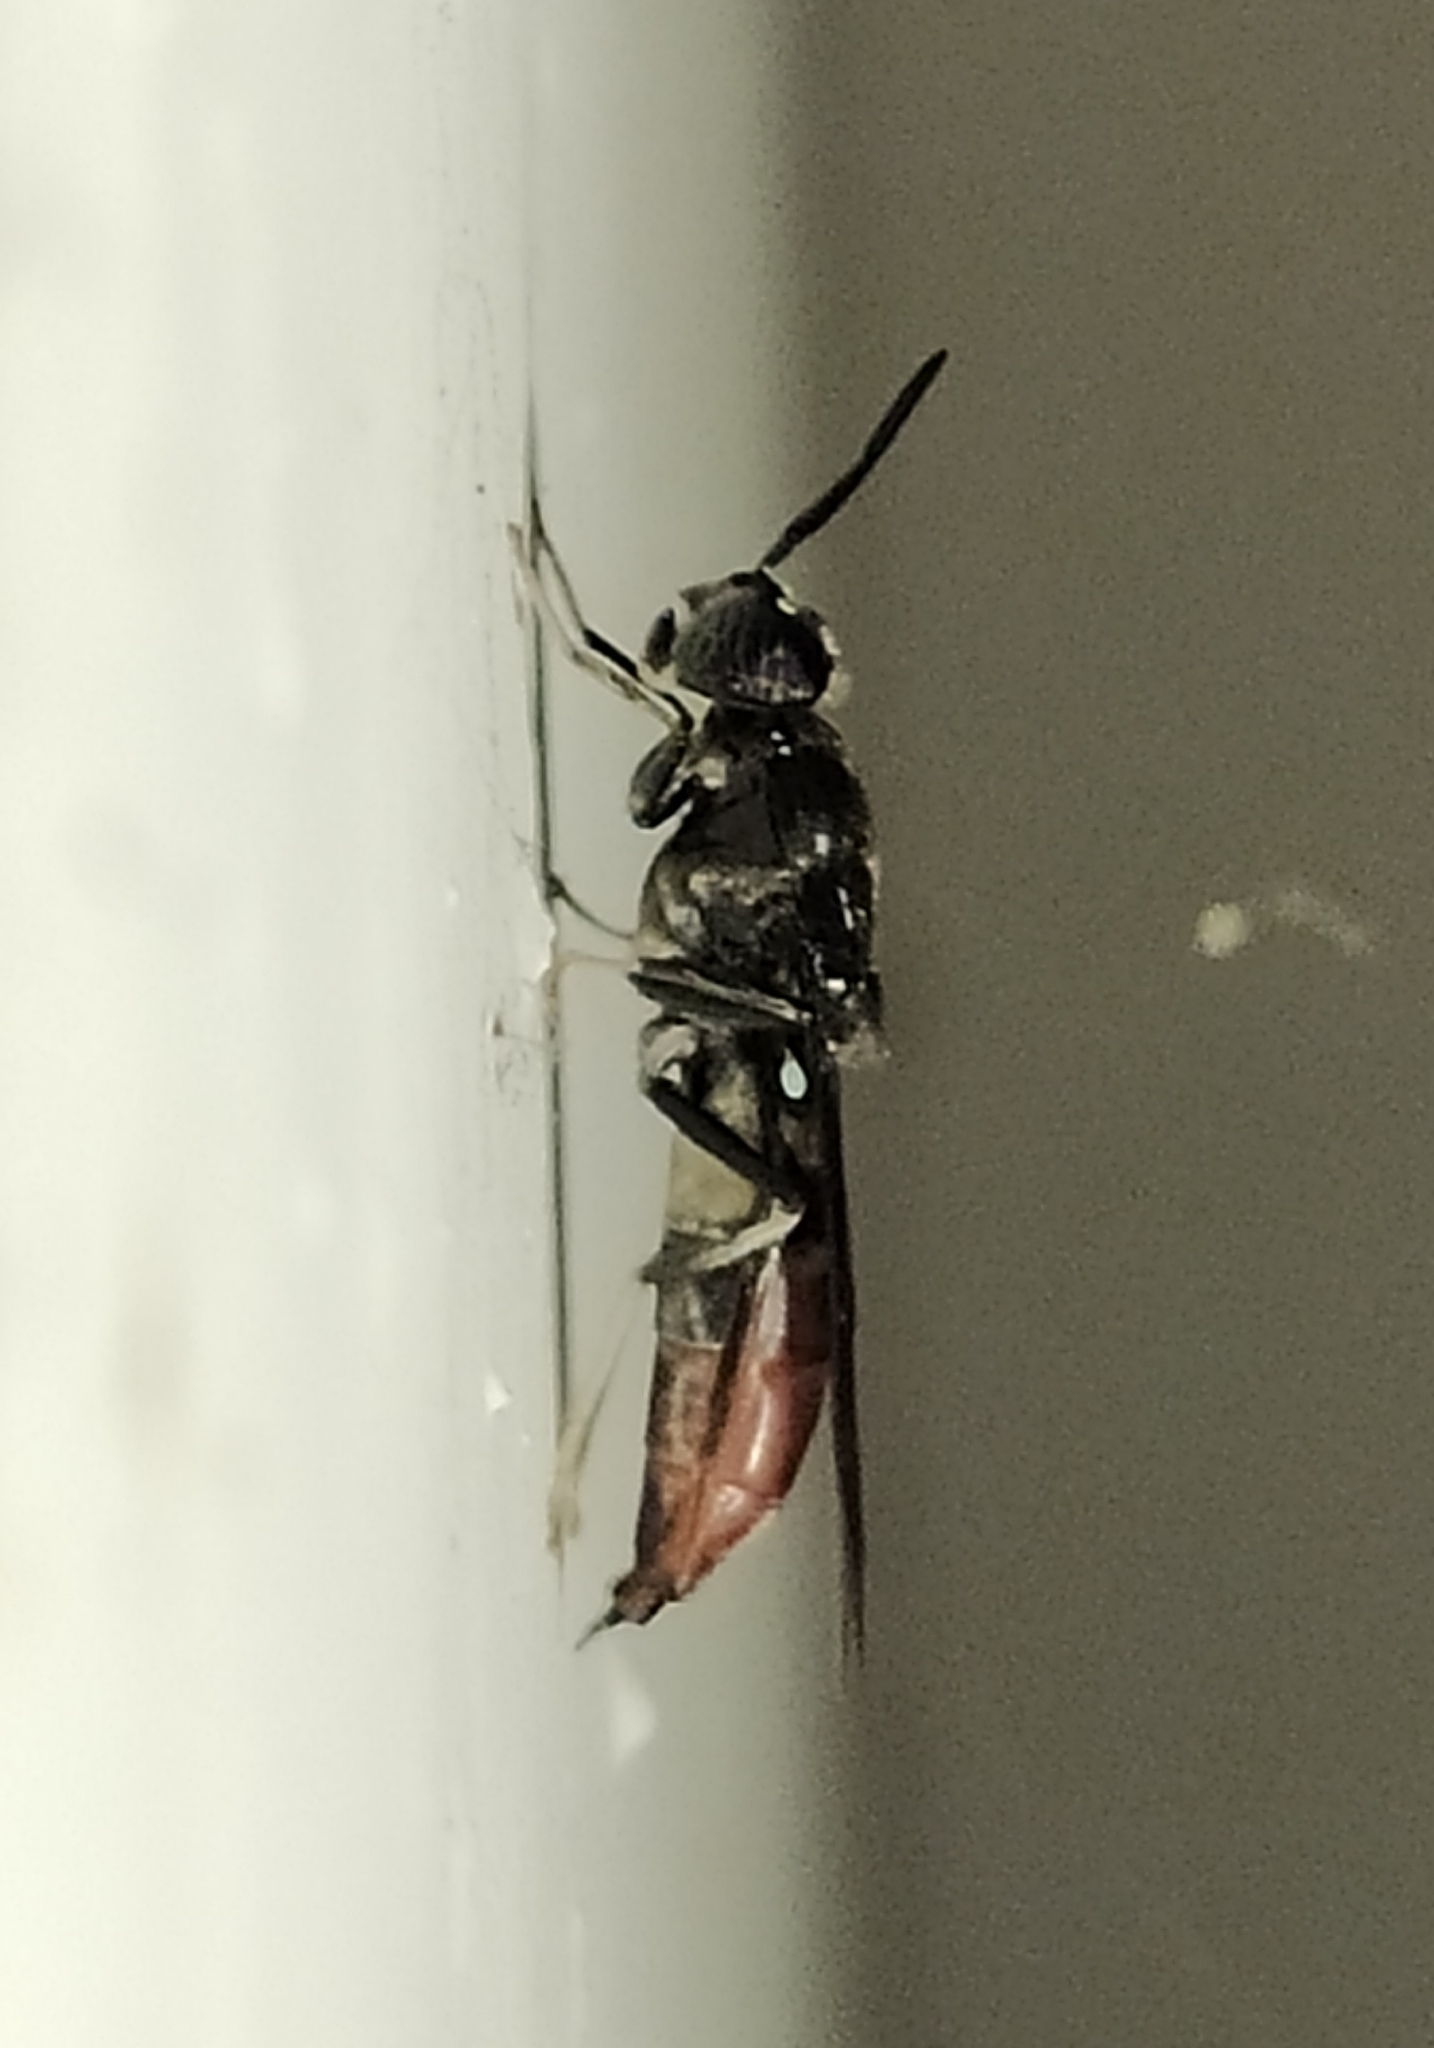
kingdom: Animalia
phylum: Arthropoda
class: Insecta
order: Diptera
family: Stratiomyidae
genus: Hermetia
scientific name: Hermetia illucens
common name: Black soldier fly
